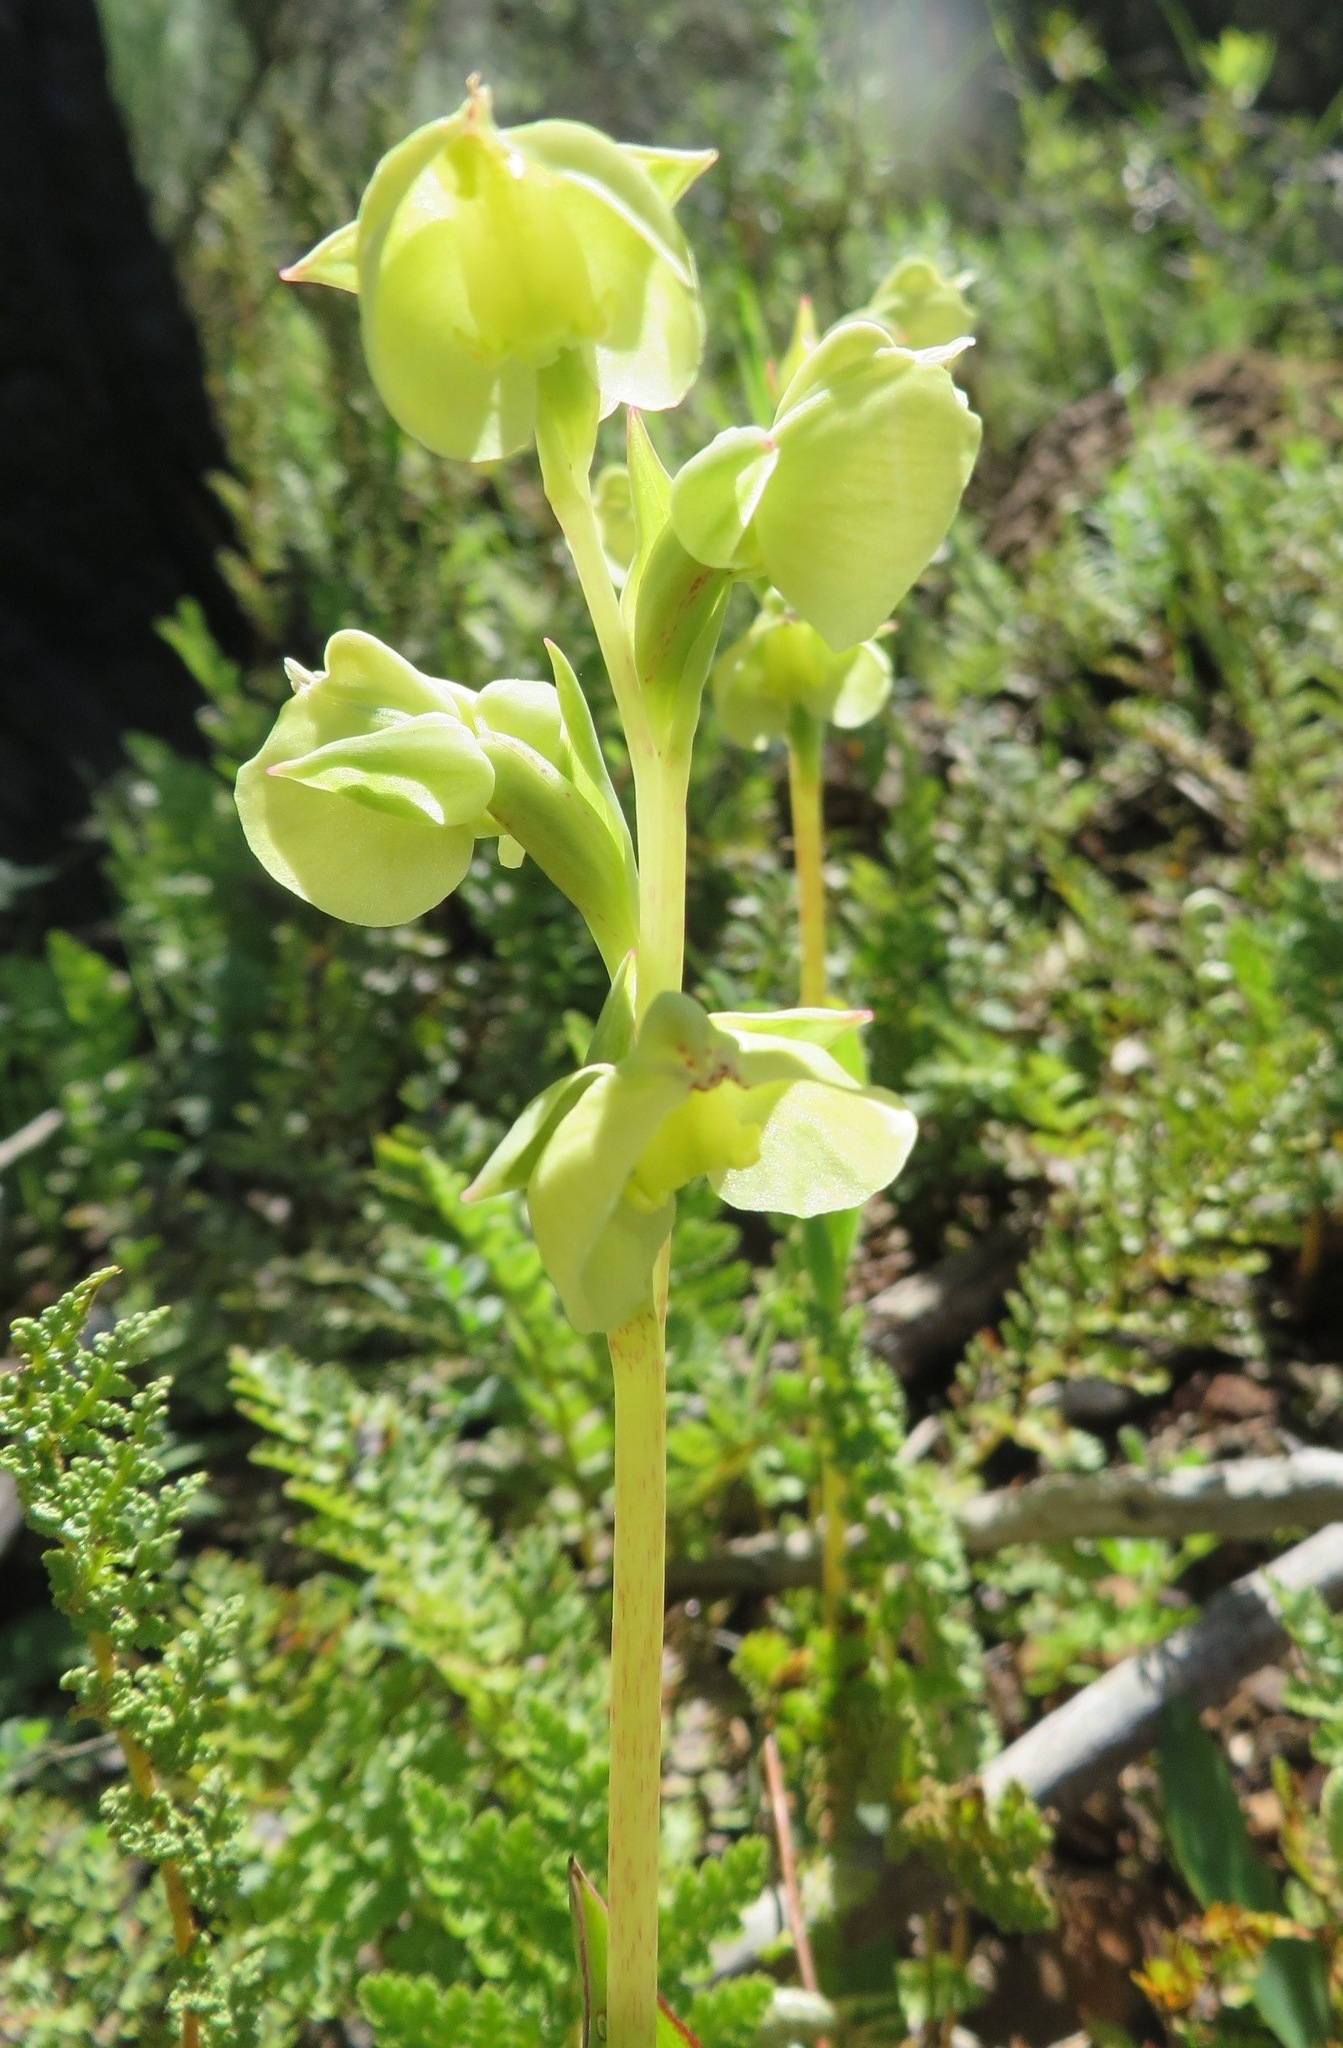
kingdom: Plantae
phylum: Tracheophyta
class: Liliopsida
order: Asparagales
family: Orchidaceae
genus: Pterygodium
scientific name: Pterygodium catholicum
